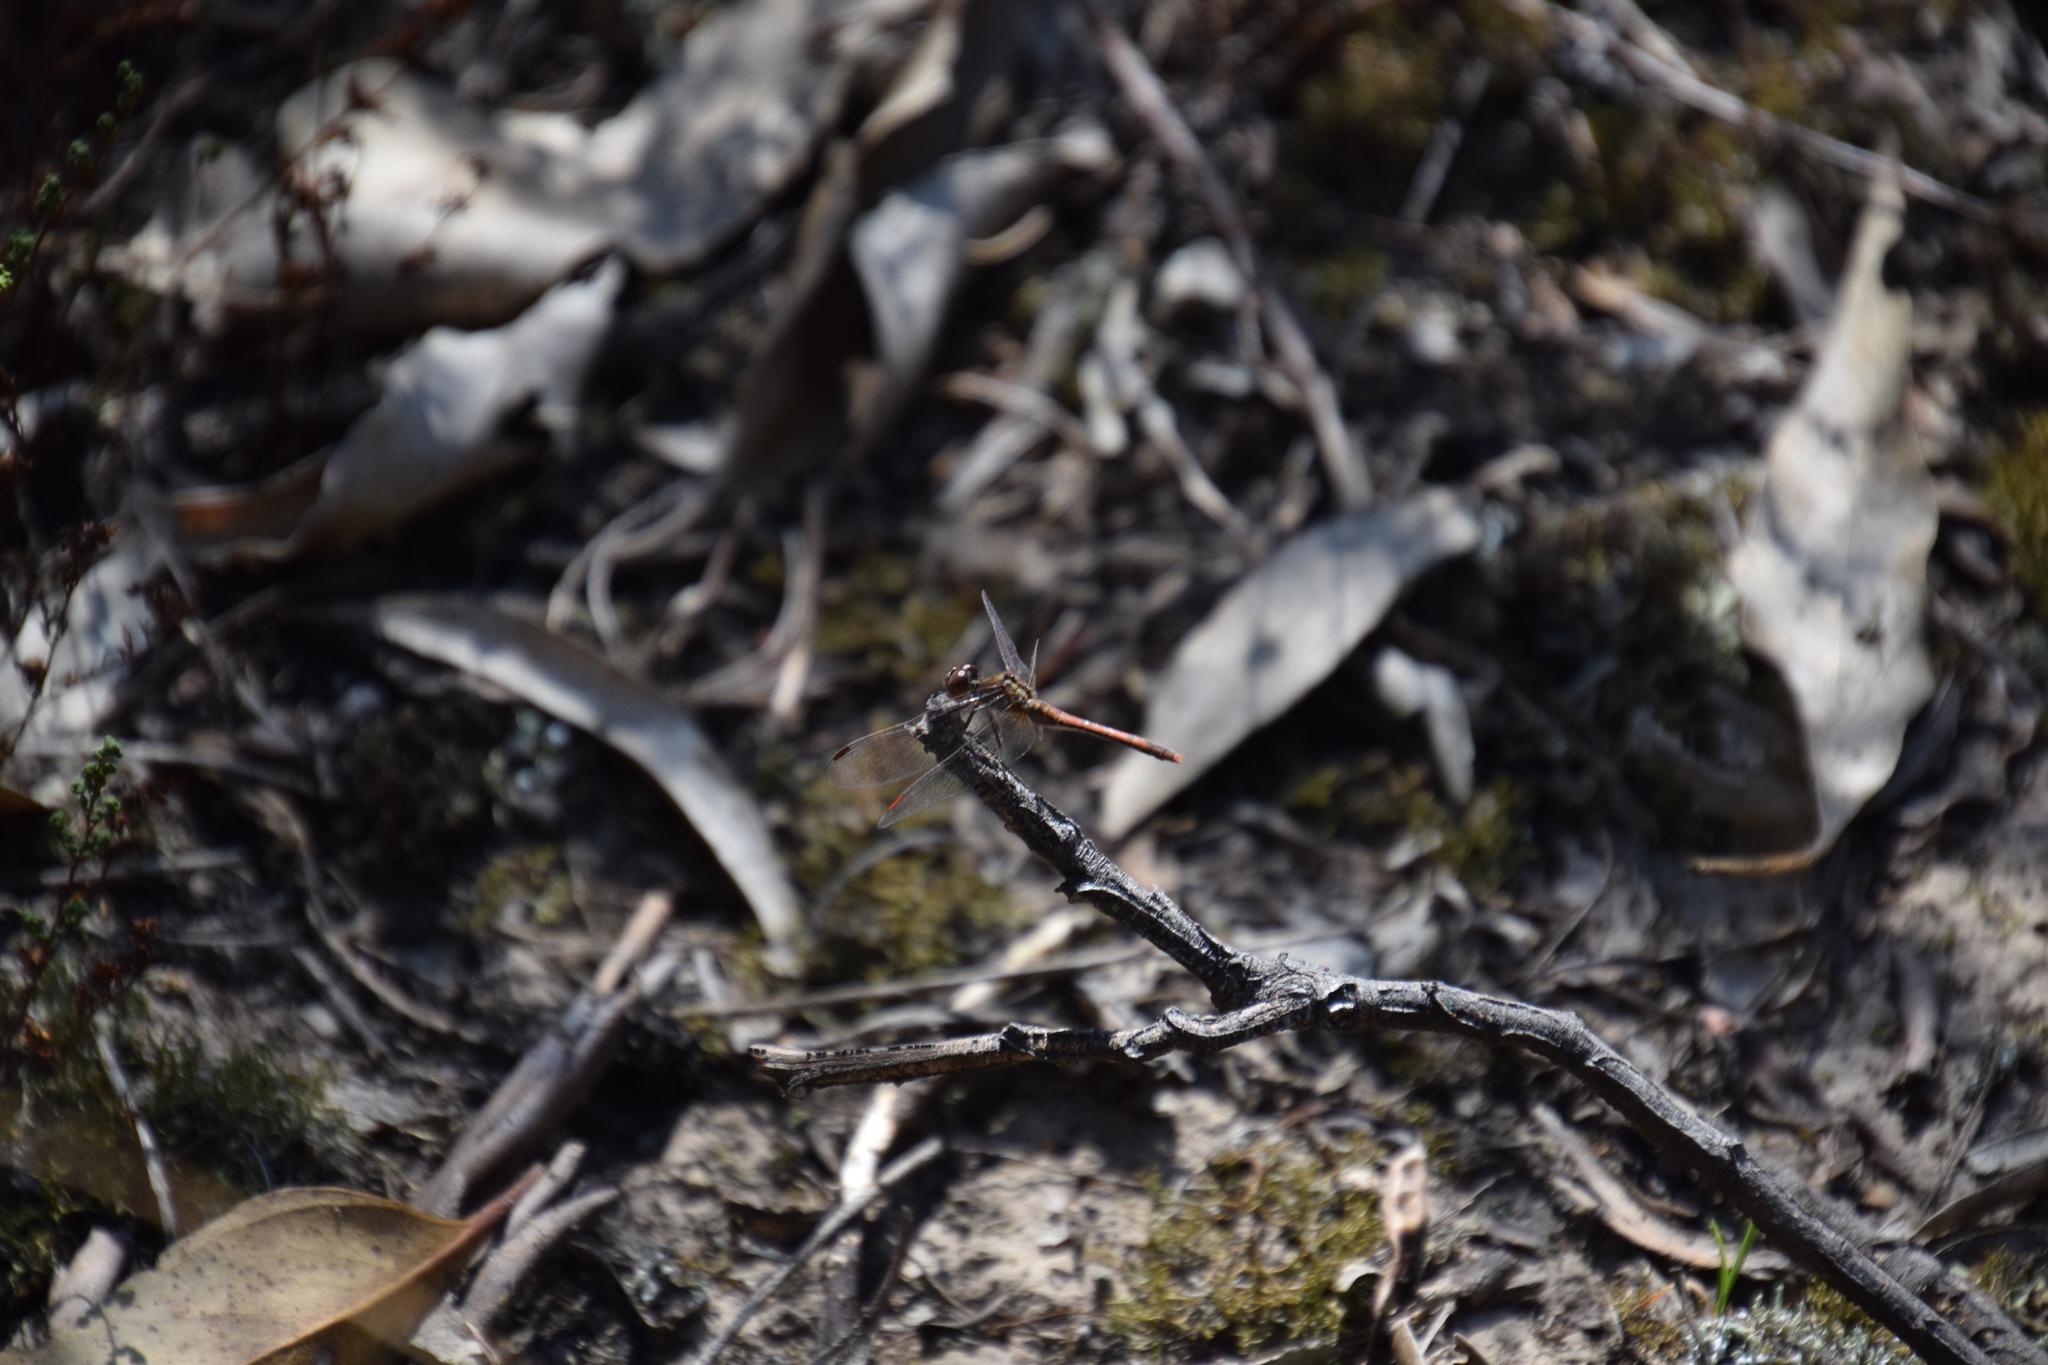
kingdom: Animalia
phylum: Arthropoda
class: Insecta
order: Odonata
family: Libellulidae
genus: Diplacodes
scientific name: Diplacodes bipunctata
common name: Red percher dragonfly
